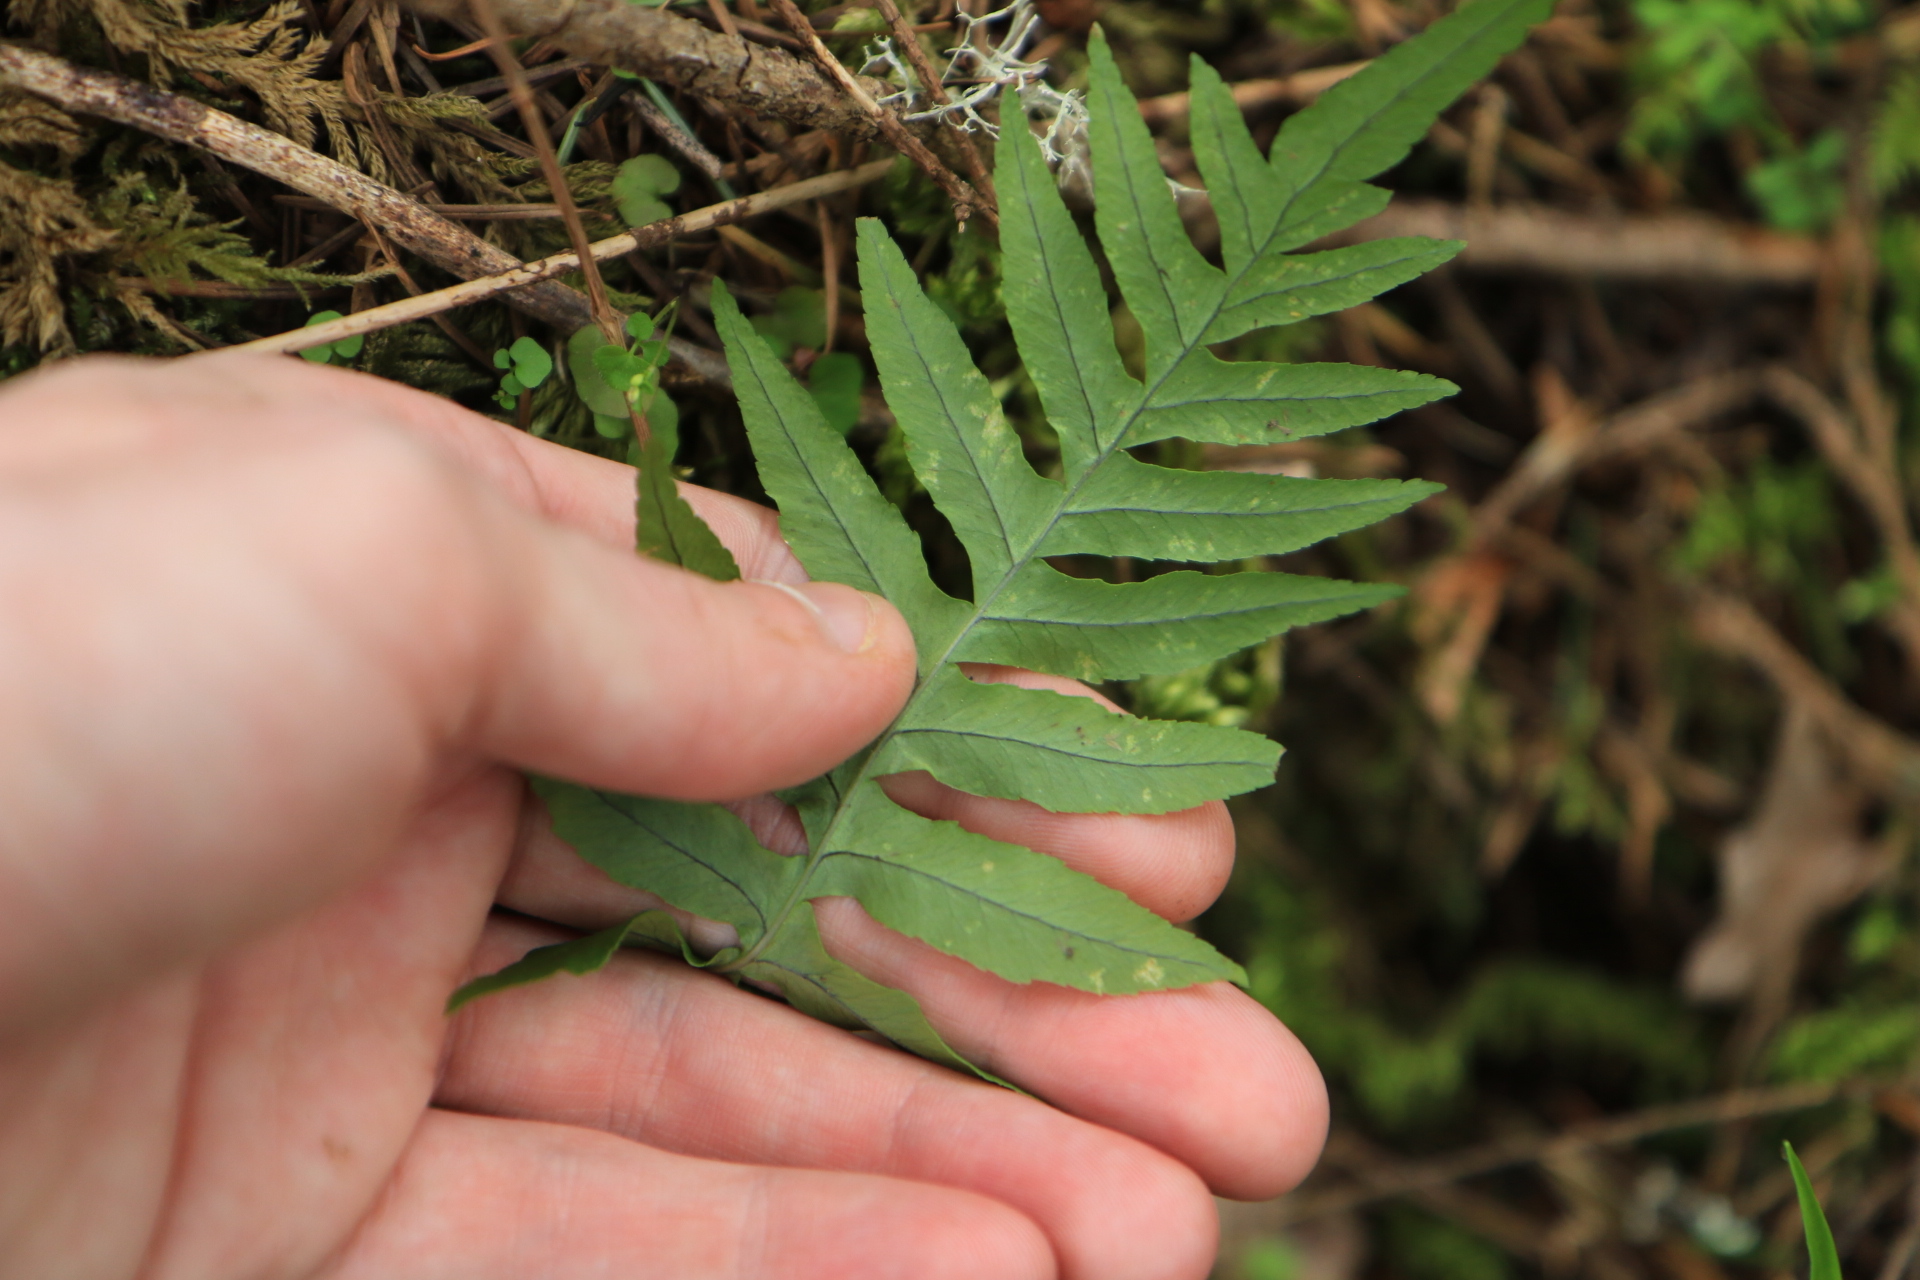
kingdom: Plantae
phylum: Tracheophyta
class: Polypodiopsida
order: Polypodiales
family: Polypodiaceae
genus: Polypodium
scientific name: Polypodium glycyrrhiza
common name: Licorice fern
